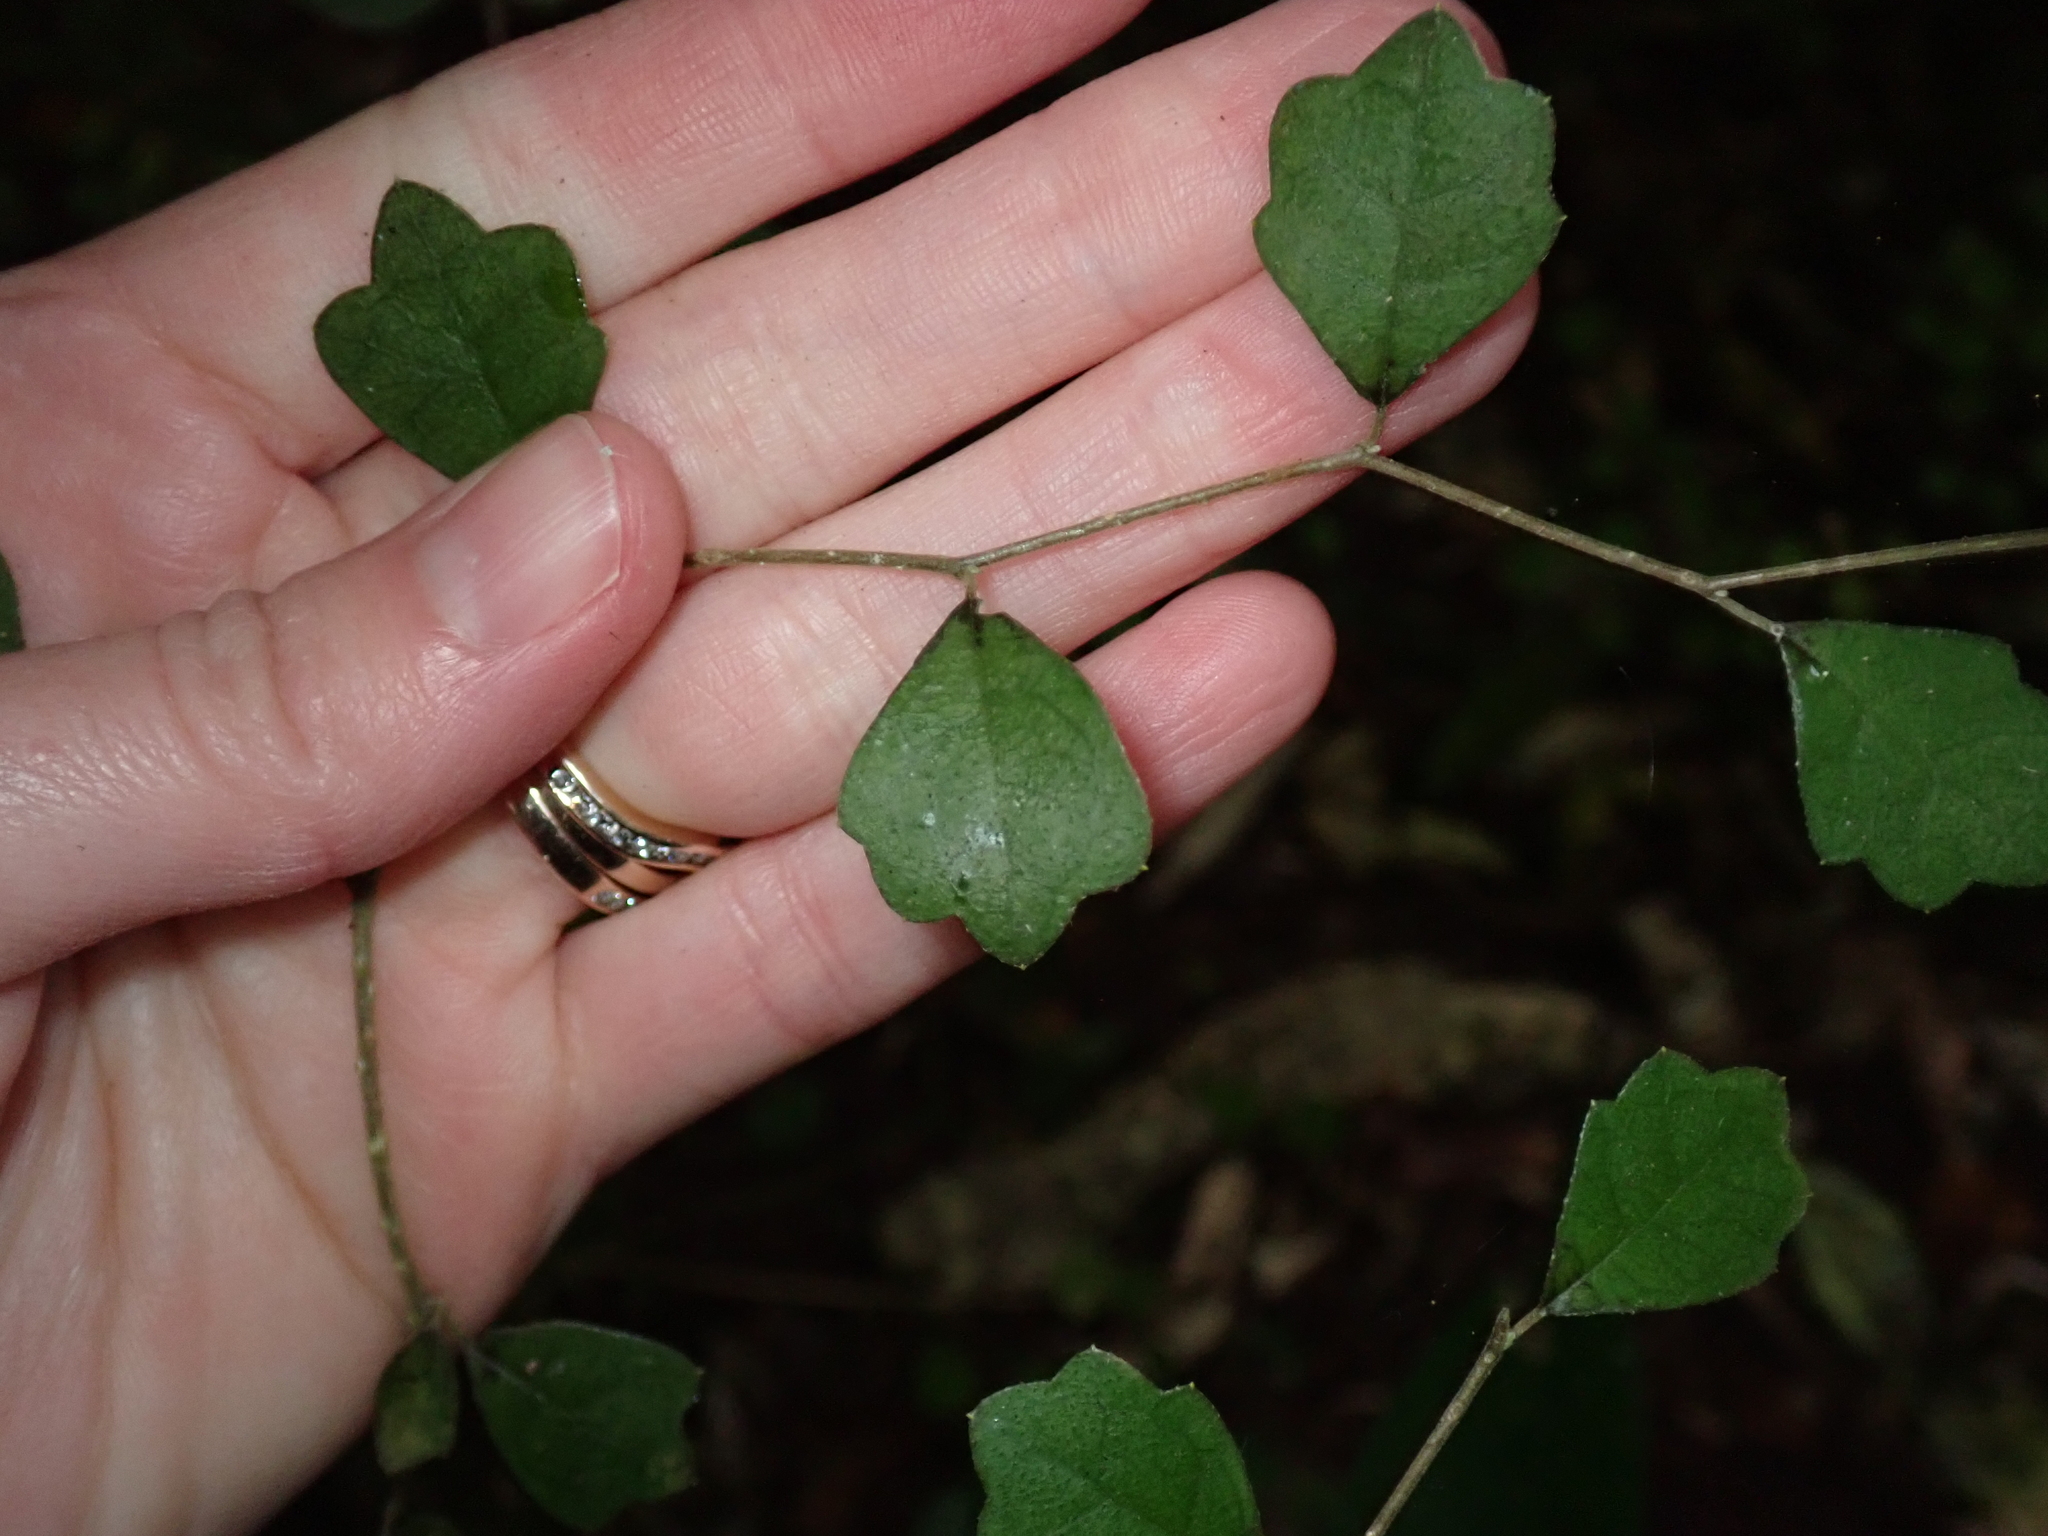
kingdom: Plantae
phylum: Tracheophyta
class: Magnoliopsida
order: Apiales
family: Pennantiaceae
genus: Pennantia
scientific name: Pennantia corymbosa
